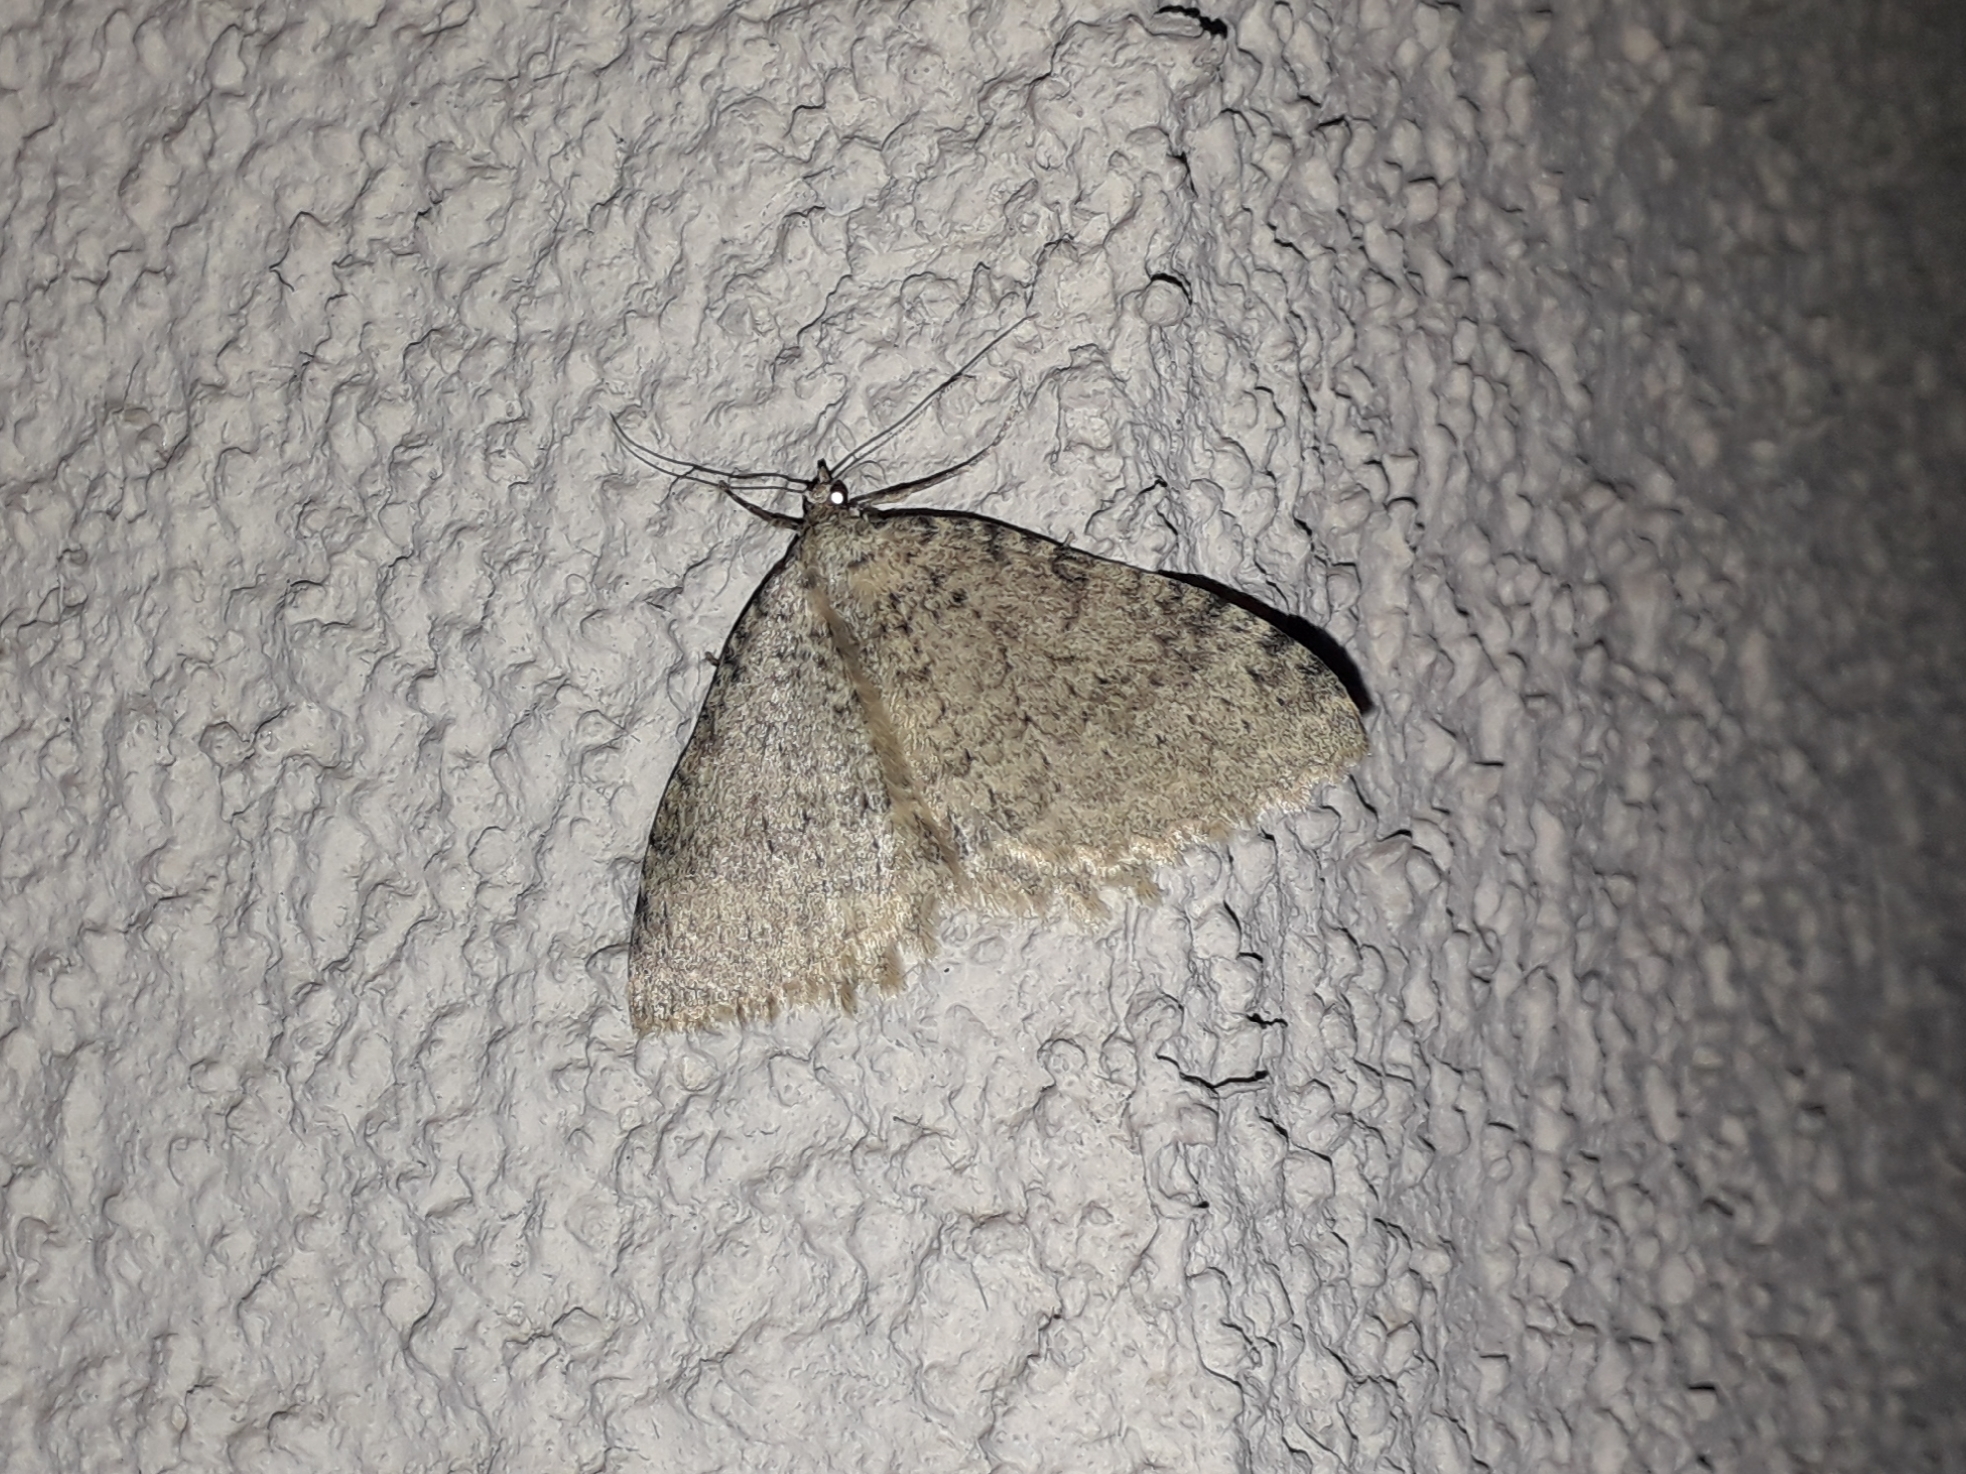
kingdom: Animalia
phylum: Arthropoda
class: Insecta
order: Lepidoptera
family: Geometridae
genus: Triphosa
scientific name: Triphosa sabaudiata
